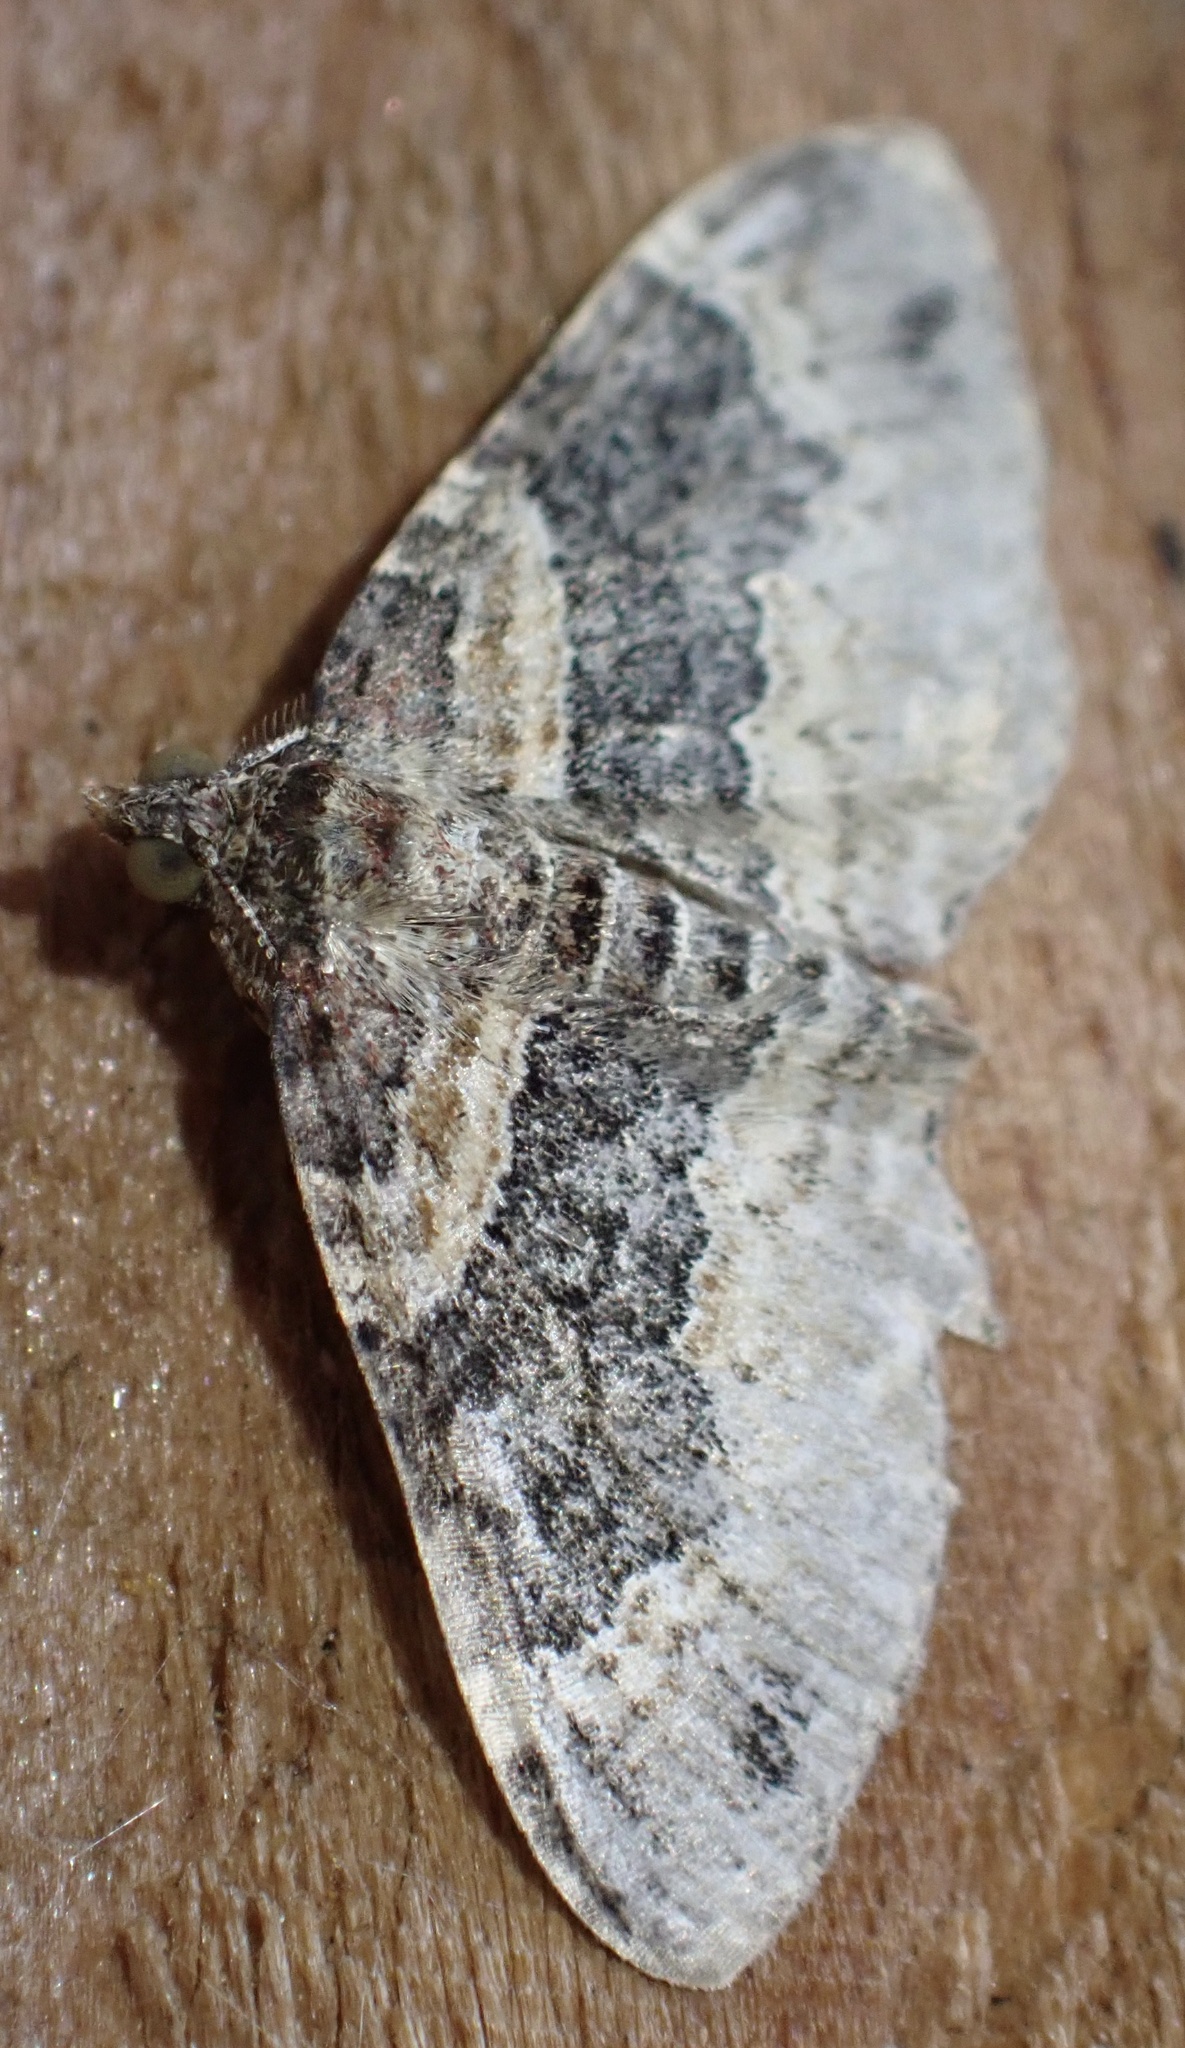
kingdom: Animalia
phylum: Arthropoda
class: Insecta
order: Lepidoptera
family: Geometridae
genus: Xanthorhoe
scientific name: Xanthorhoe ferrugata
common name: Dark-barred twin-spot carpet
